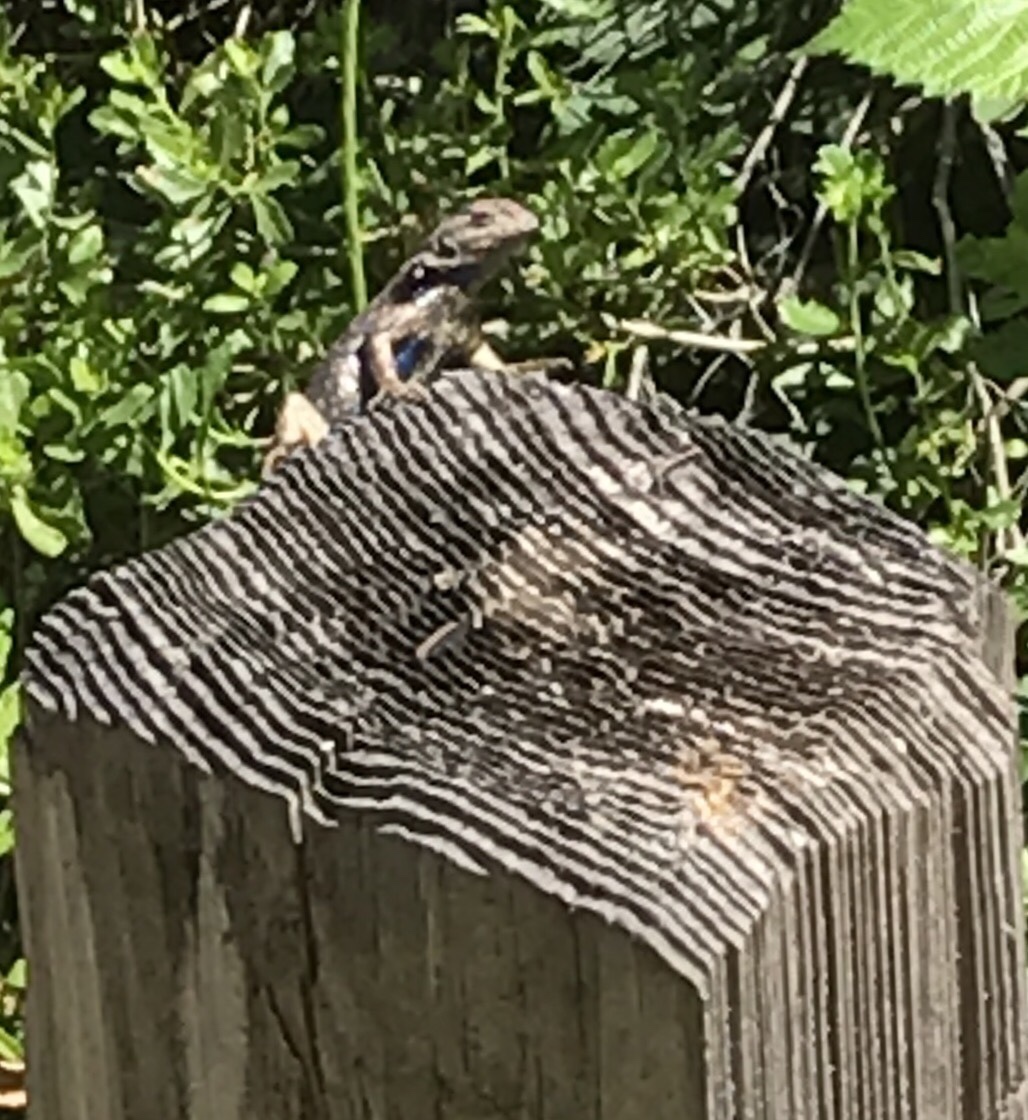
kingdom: Animalia
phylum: Chordata
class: Squamata
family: Phrynosomatidae
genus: Sceloporus
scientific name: Sceloporus occidentalis
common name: Western fence lizard
